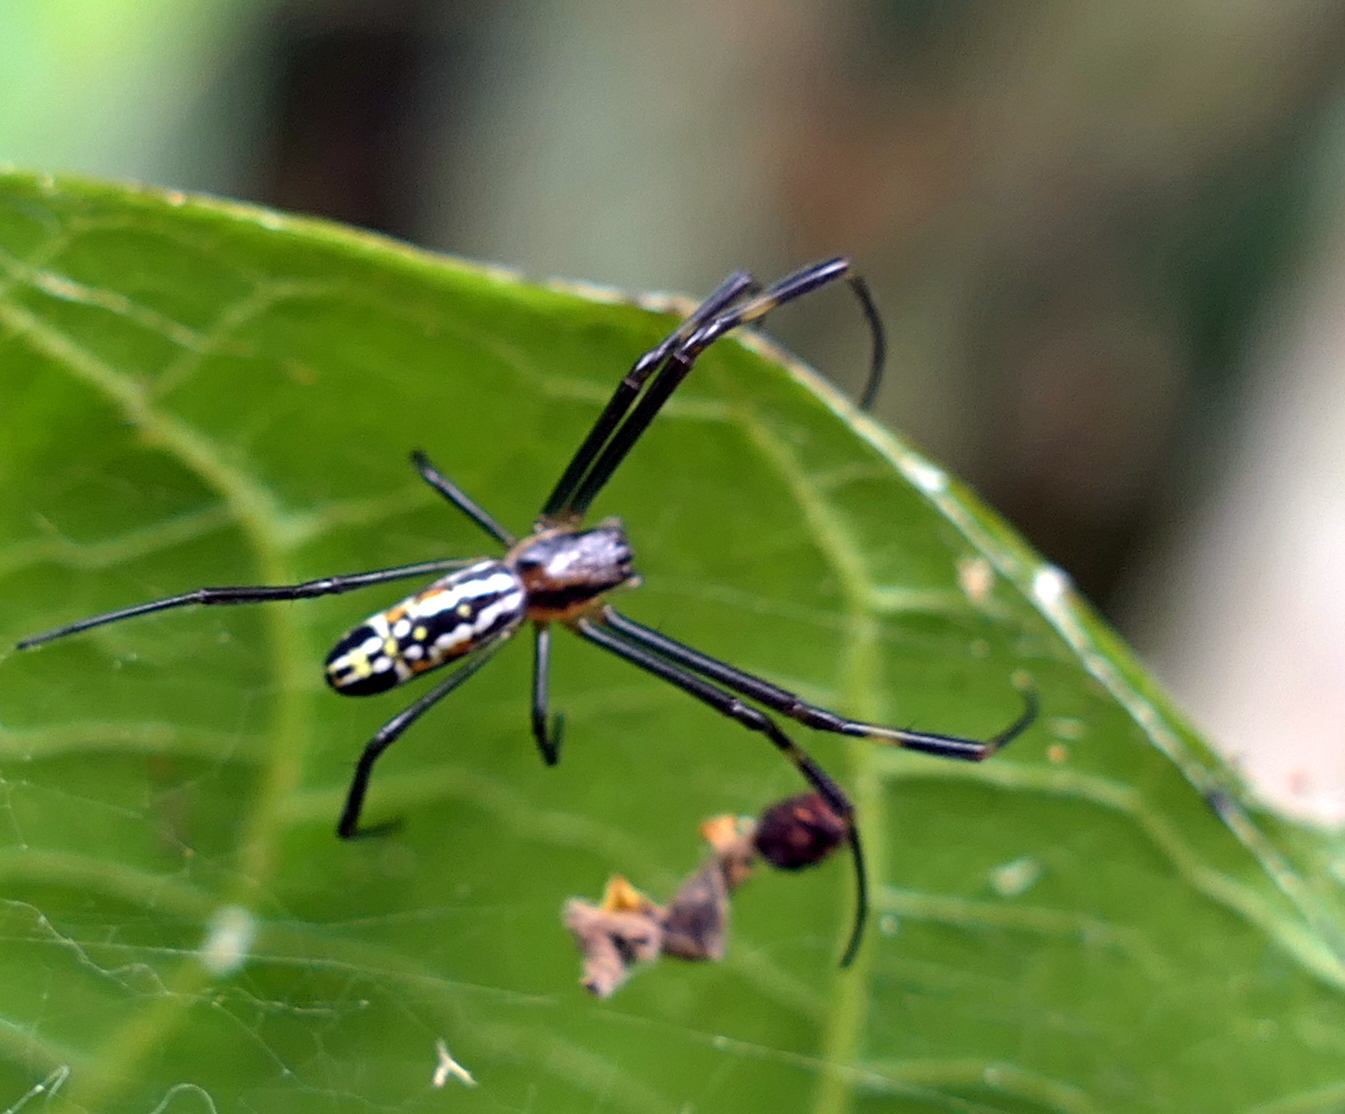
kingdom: Animalia
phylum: Arthropoda
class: Arachnida
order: Araneae
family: Araneidae
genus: Trichonephila
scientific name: Trichonephila clavipes
